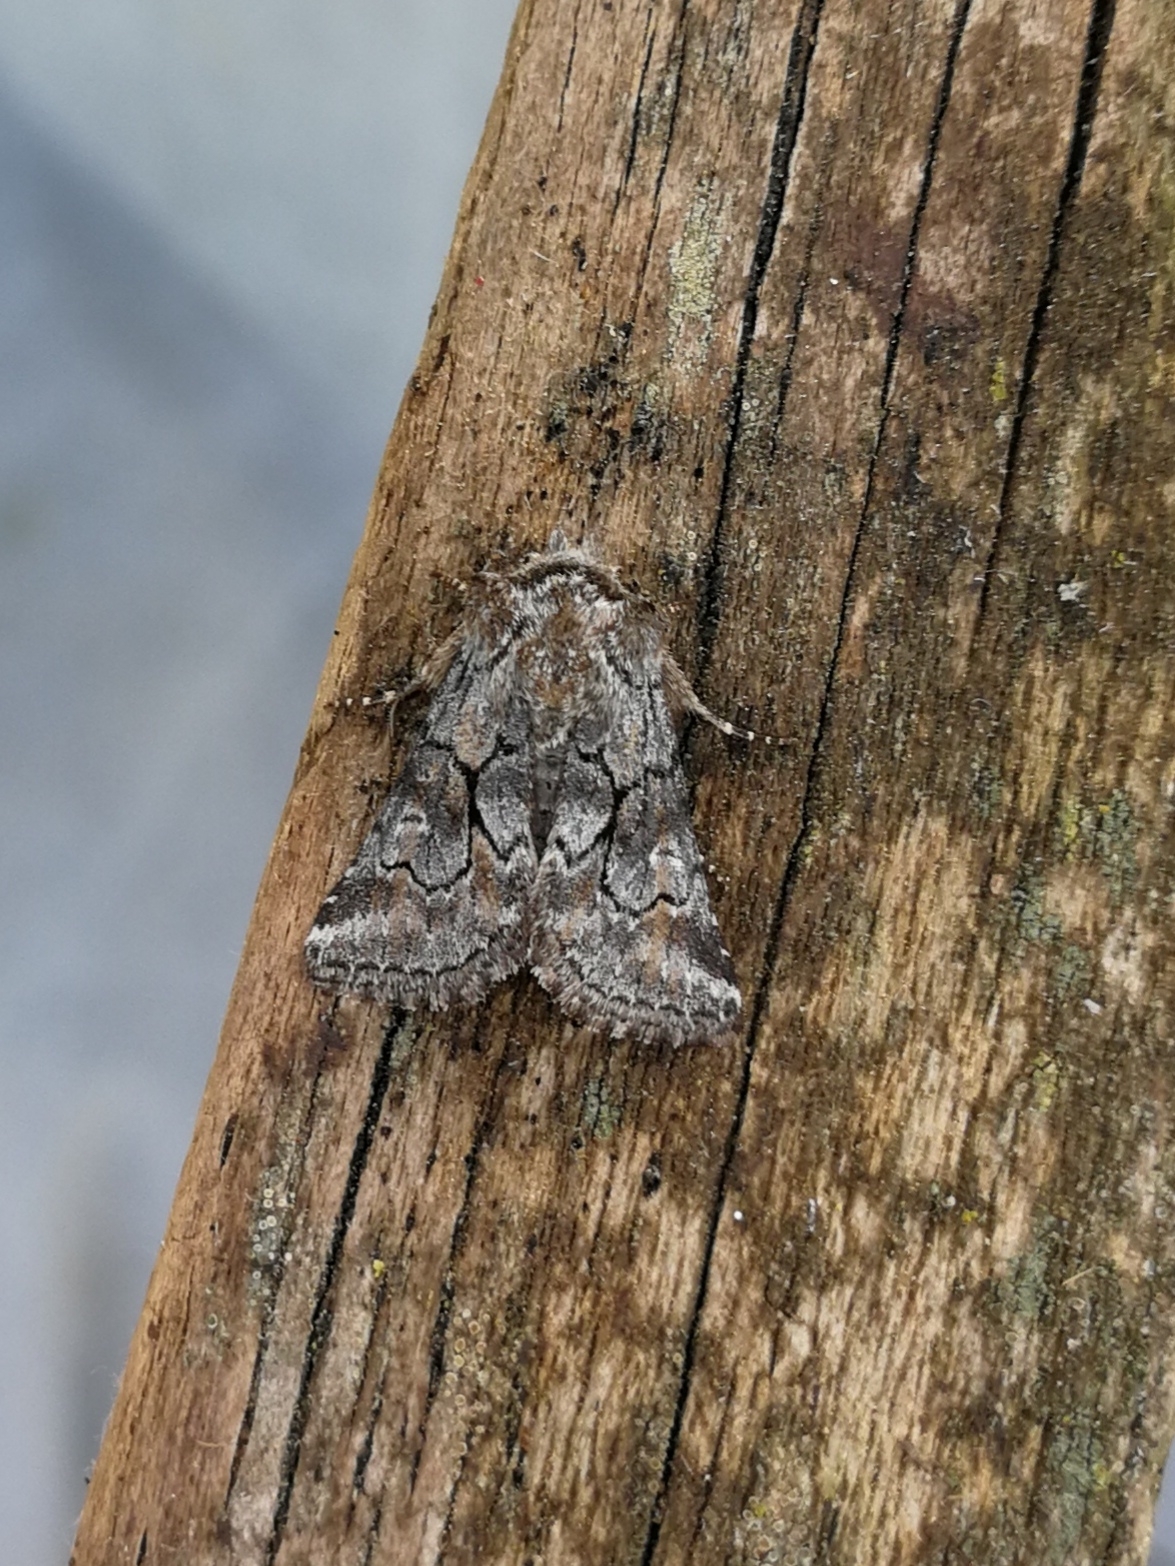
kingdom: Animalia
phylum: Arthropoda
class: Insecta
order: Lepidoptera
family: Noctuidae
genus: Cleonymia
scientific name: Cleonymia yvanii
